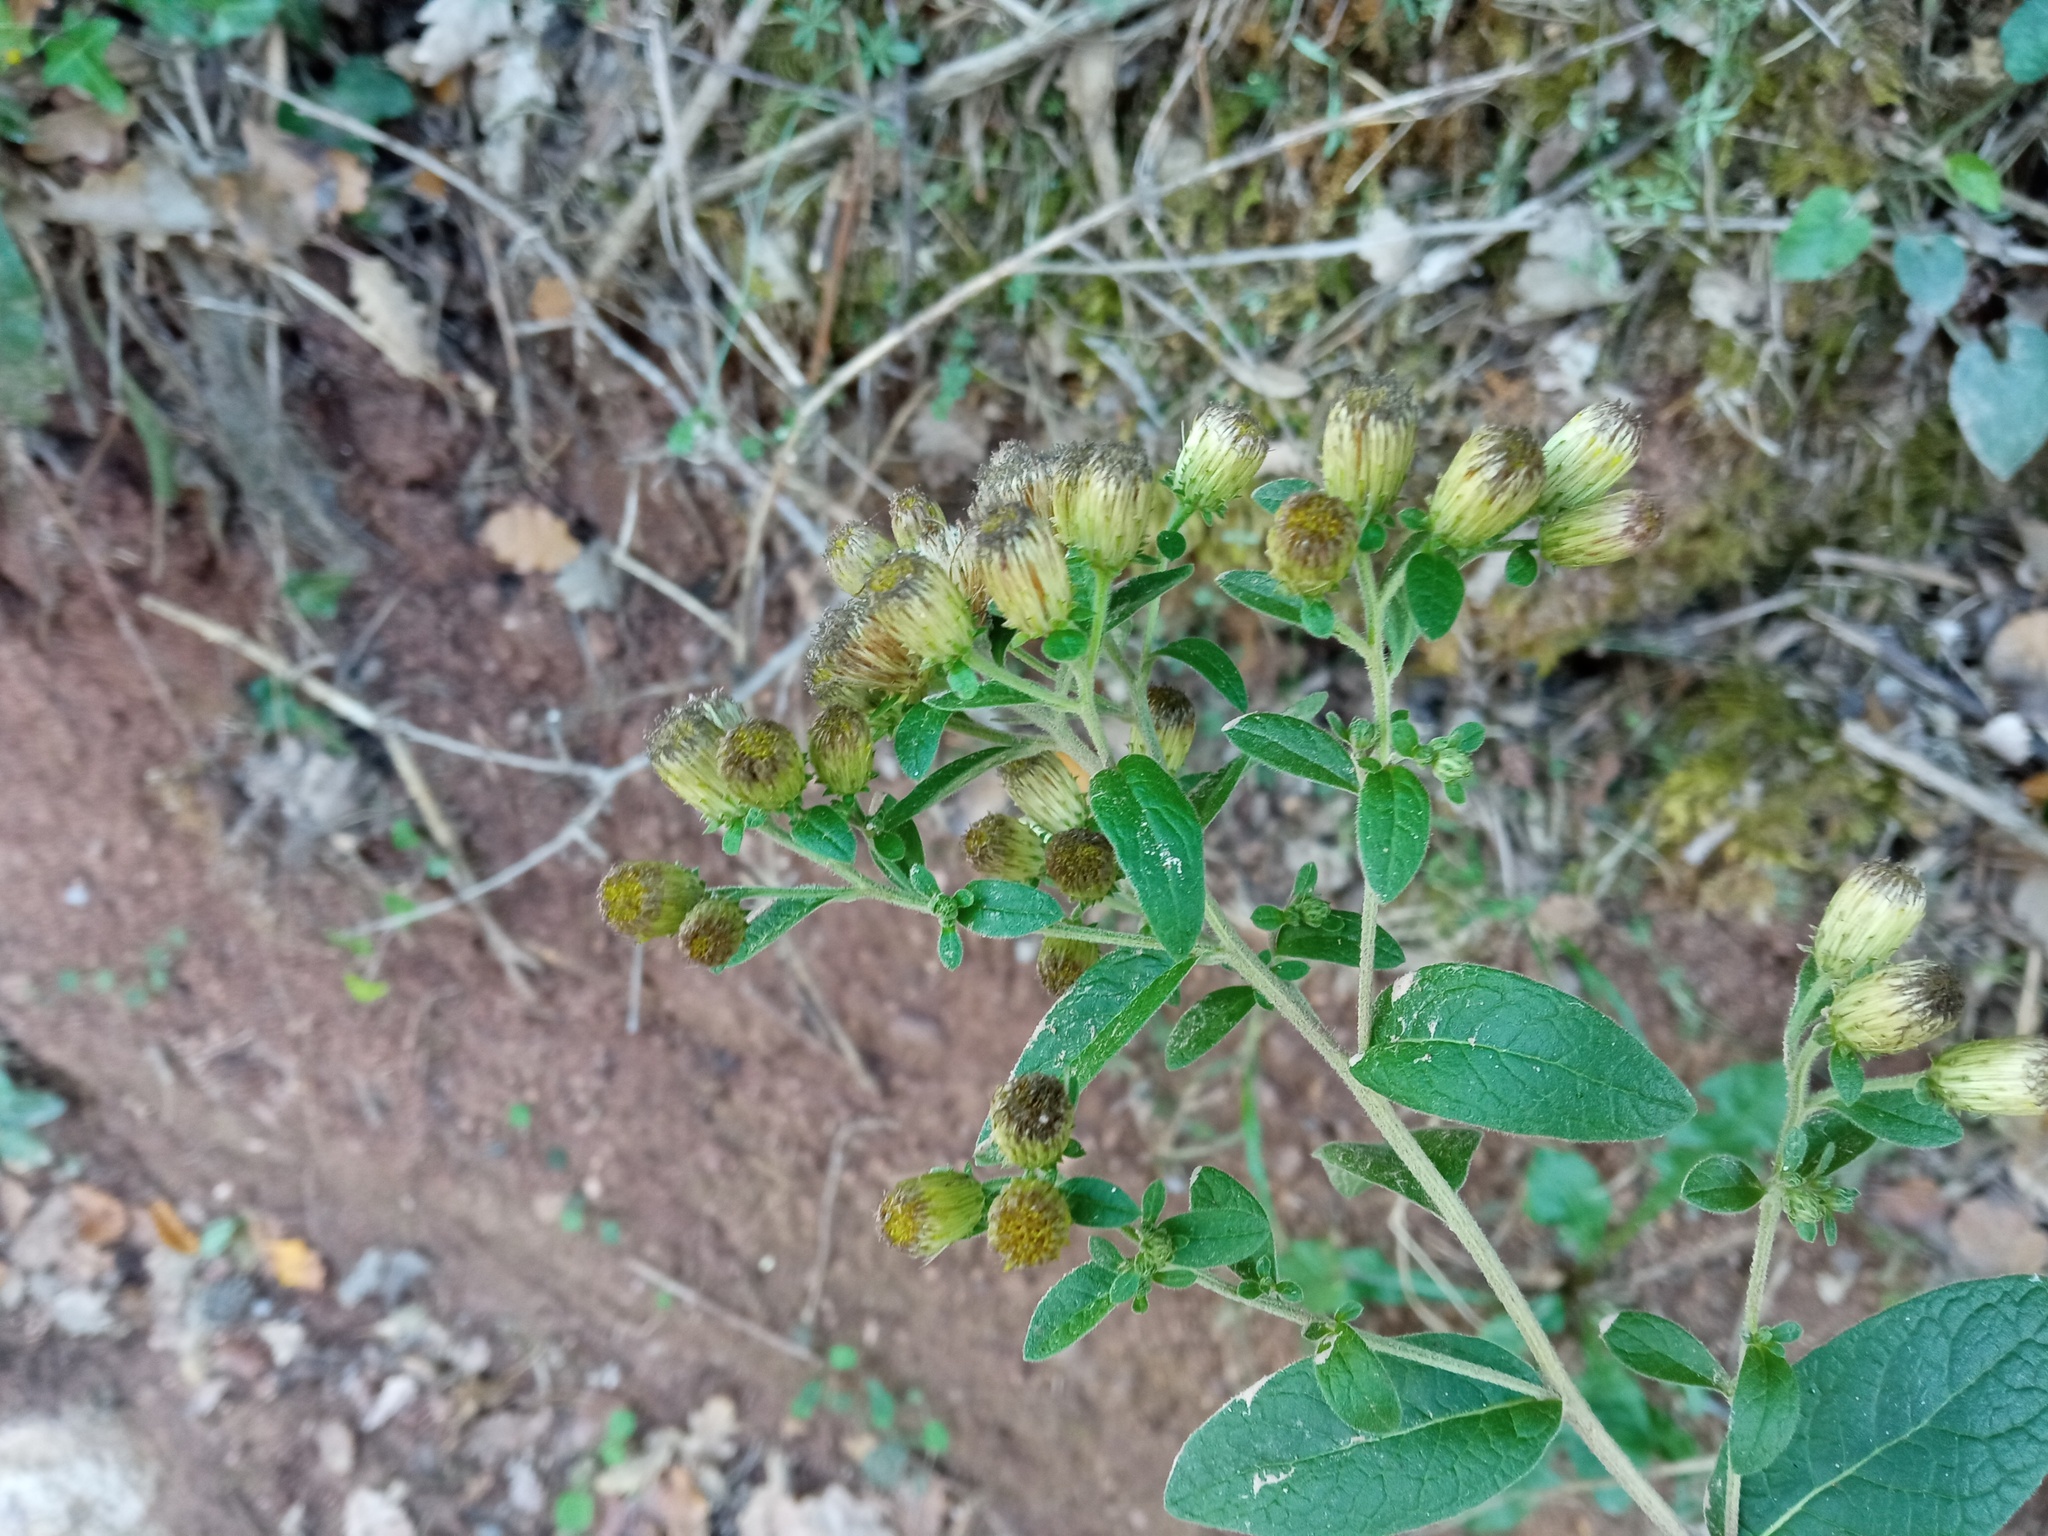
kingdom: Plantae
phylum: Tracheophyta
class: Magnoliopsida
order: Asterales
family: Asteraceae
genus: Pentanema
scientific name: Pentanema squarrosum
